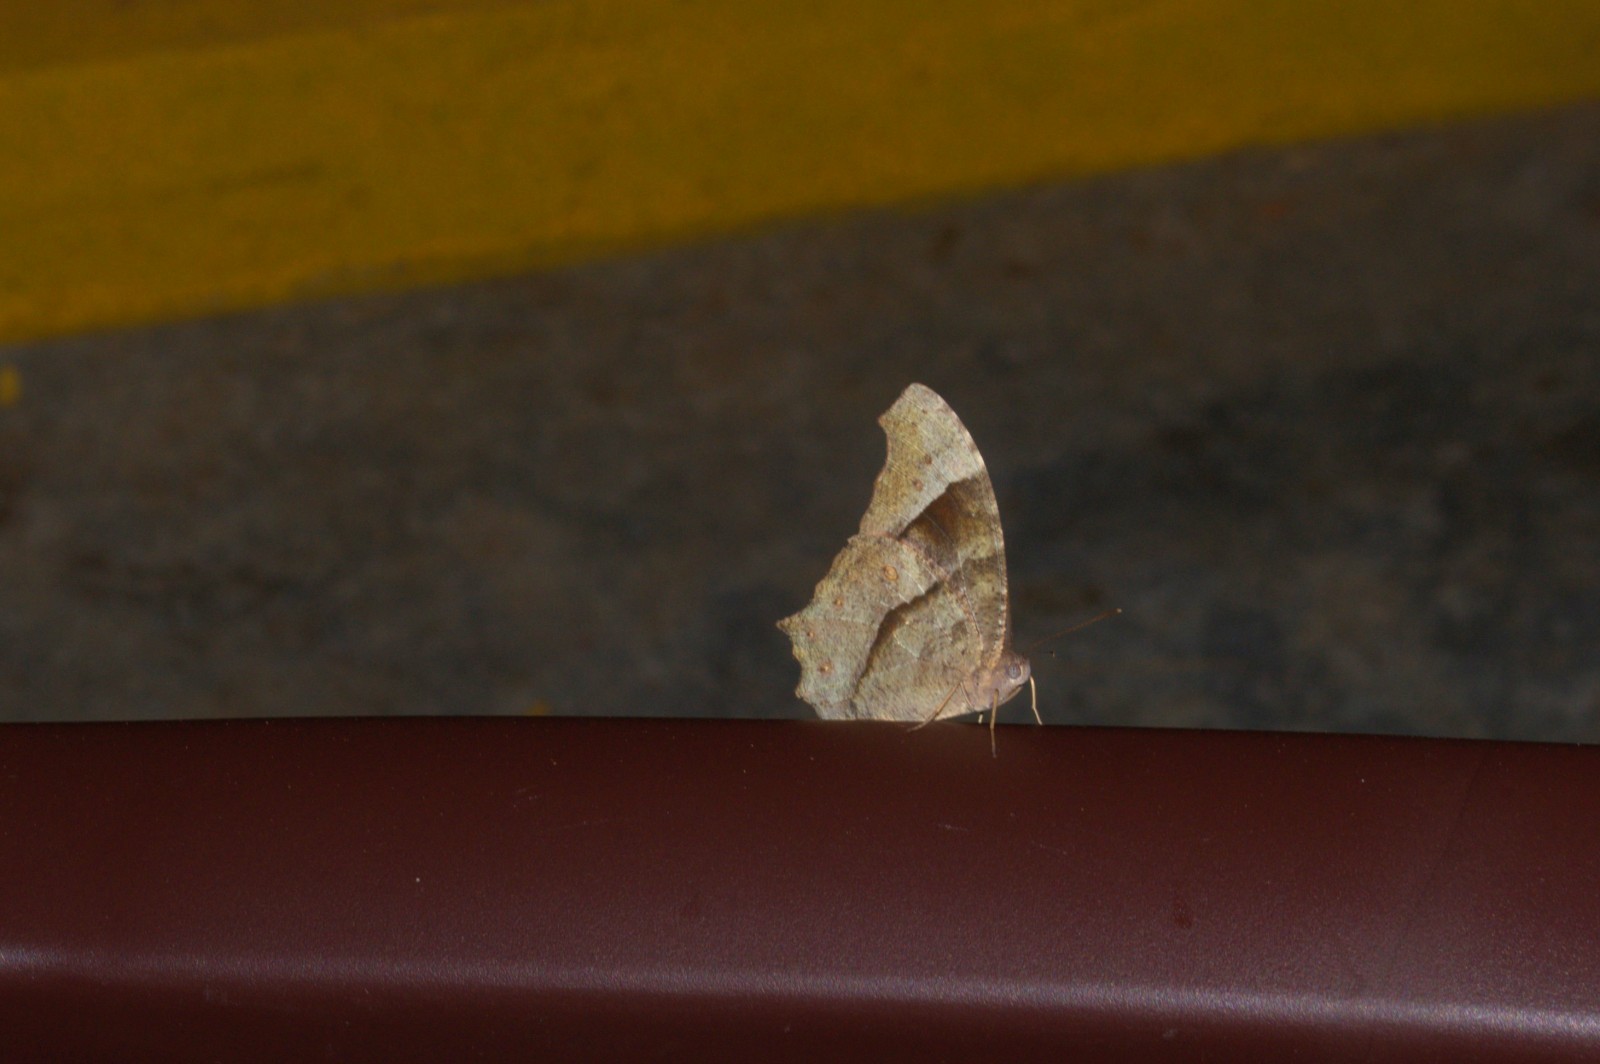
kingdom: Animalia
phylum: Arthropoda
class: Insecta
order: Lepidoptera
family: Nymphalidae
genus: Melanitis
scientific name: Melanitis leda
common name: Twilight brown
